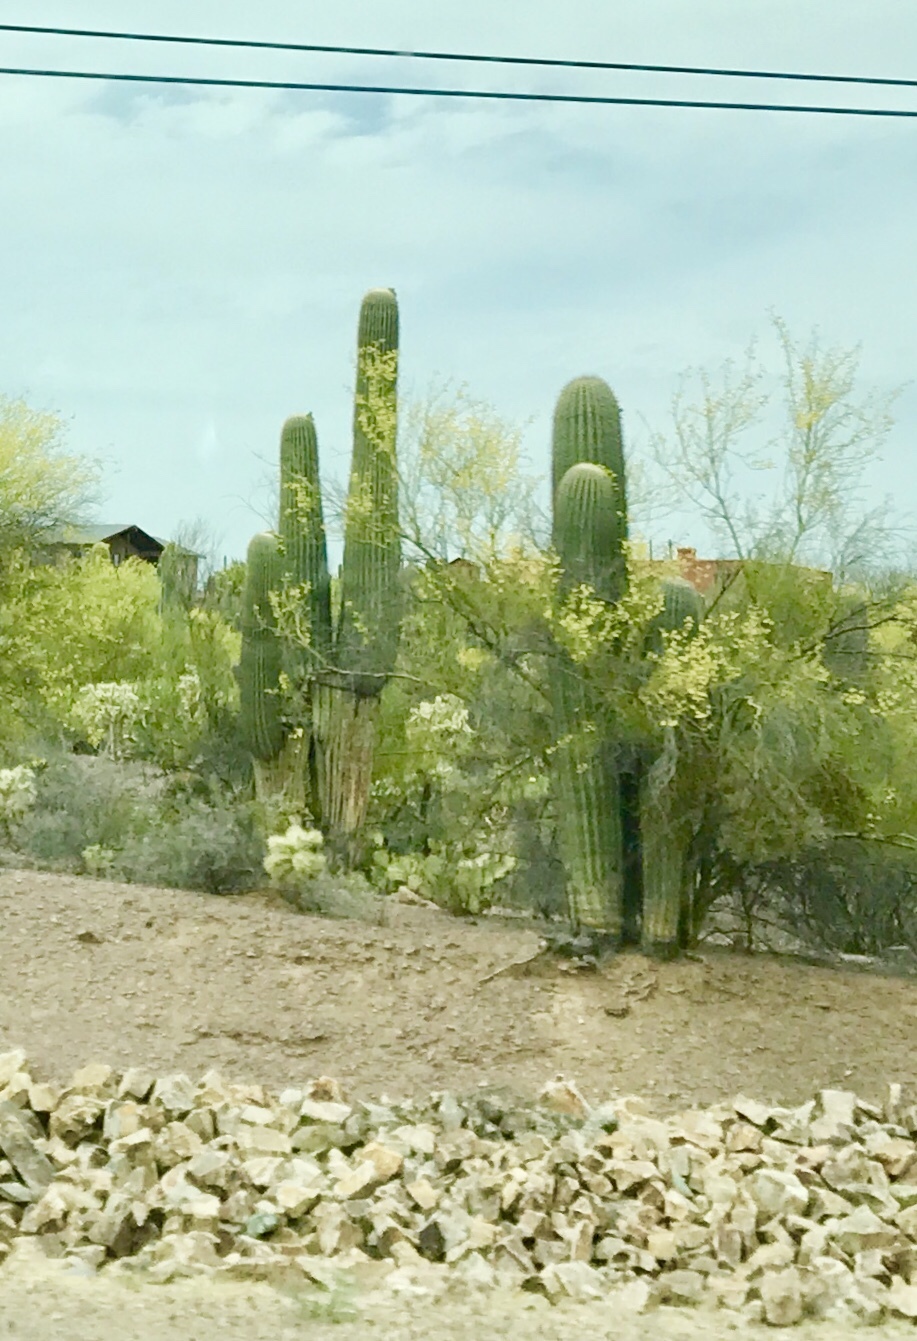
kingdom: Plantae
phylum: Tracheophyta
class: Magnoliopsida
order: Caryophyllales
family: Cactaceae
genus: Carnegiea
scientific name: Carnegiea gigantea
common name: Saguaro
